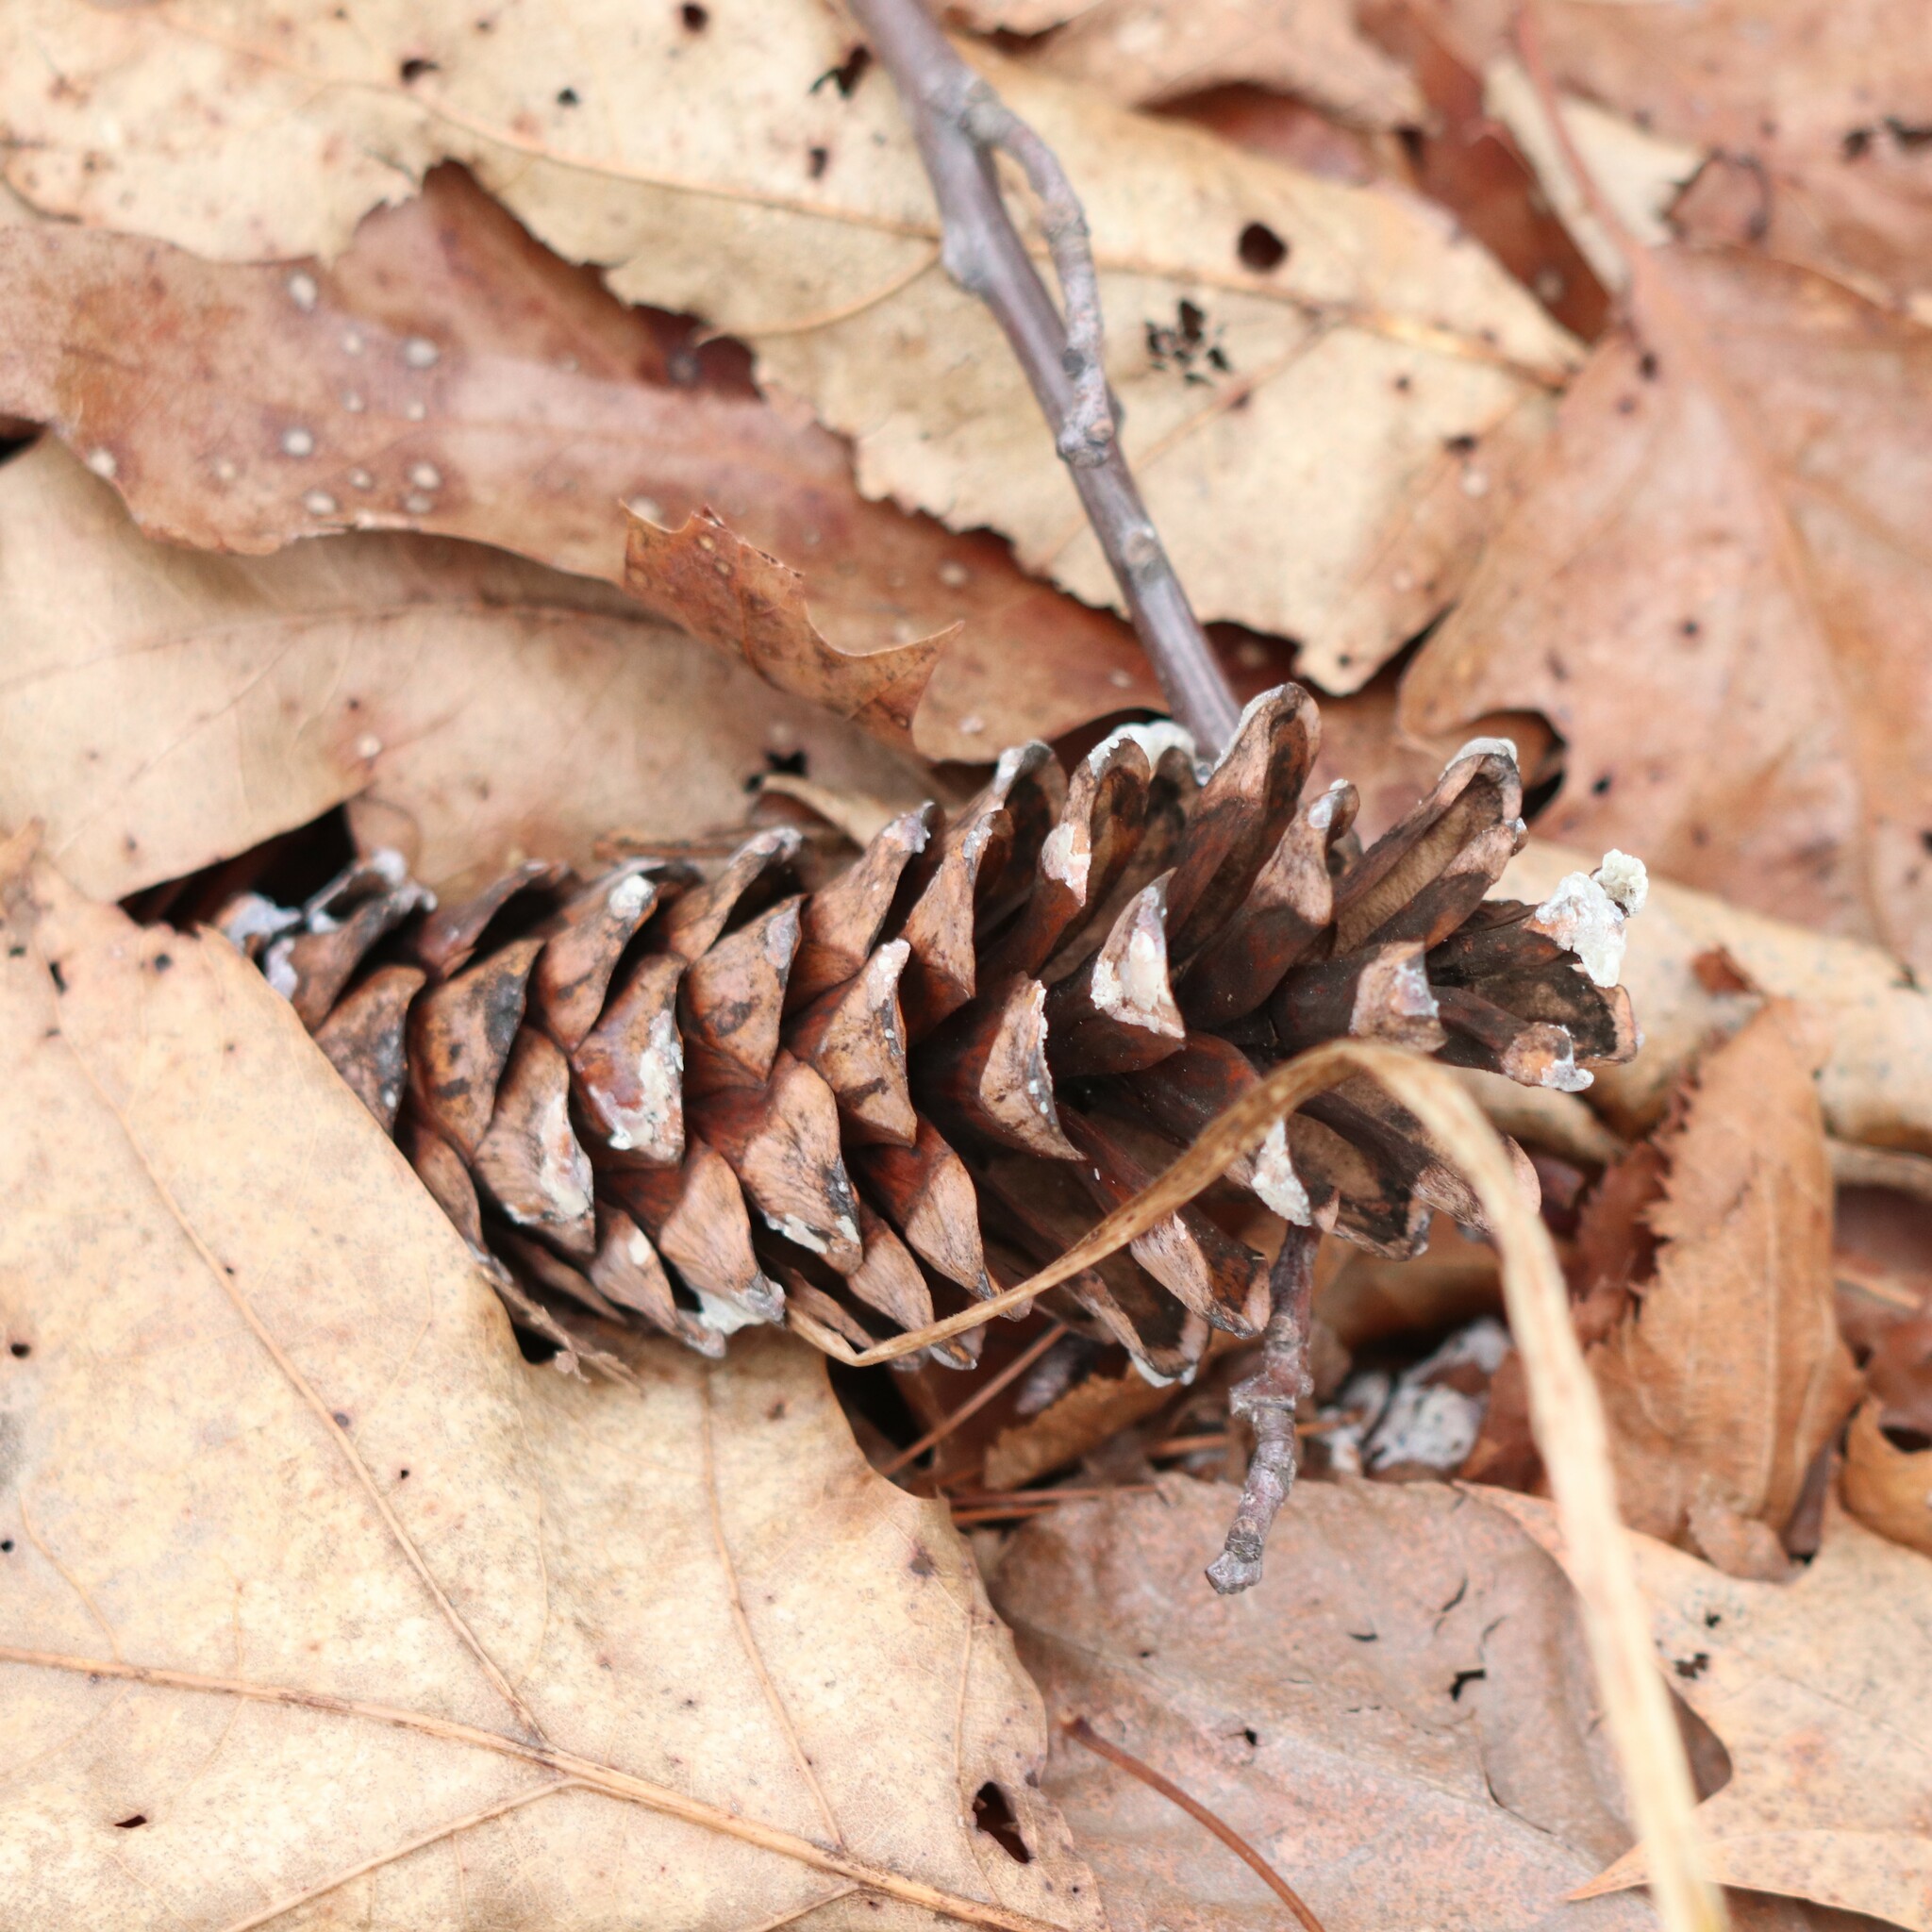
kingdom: Plantae
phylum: Tracheophyta
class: Pinopsida
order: Pinales
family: Pinaceae
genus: Pinus
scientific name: Pinus strobus
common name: Weymouth pine
